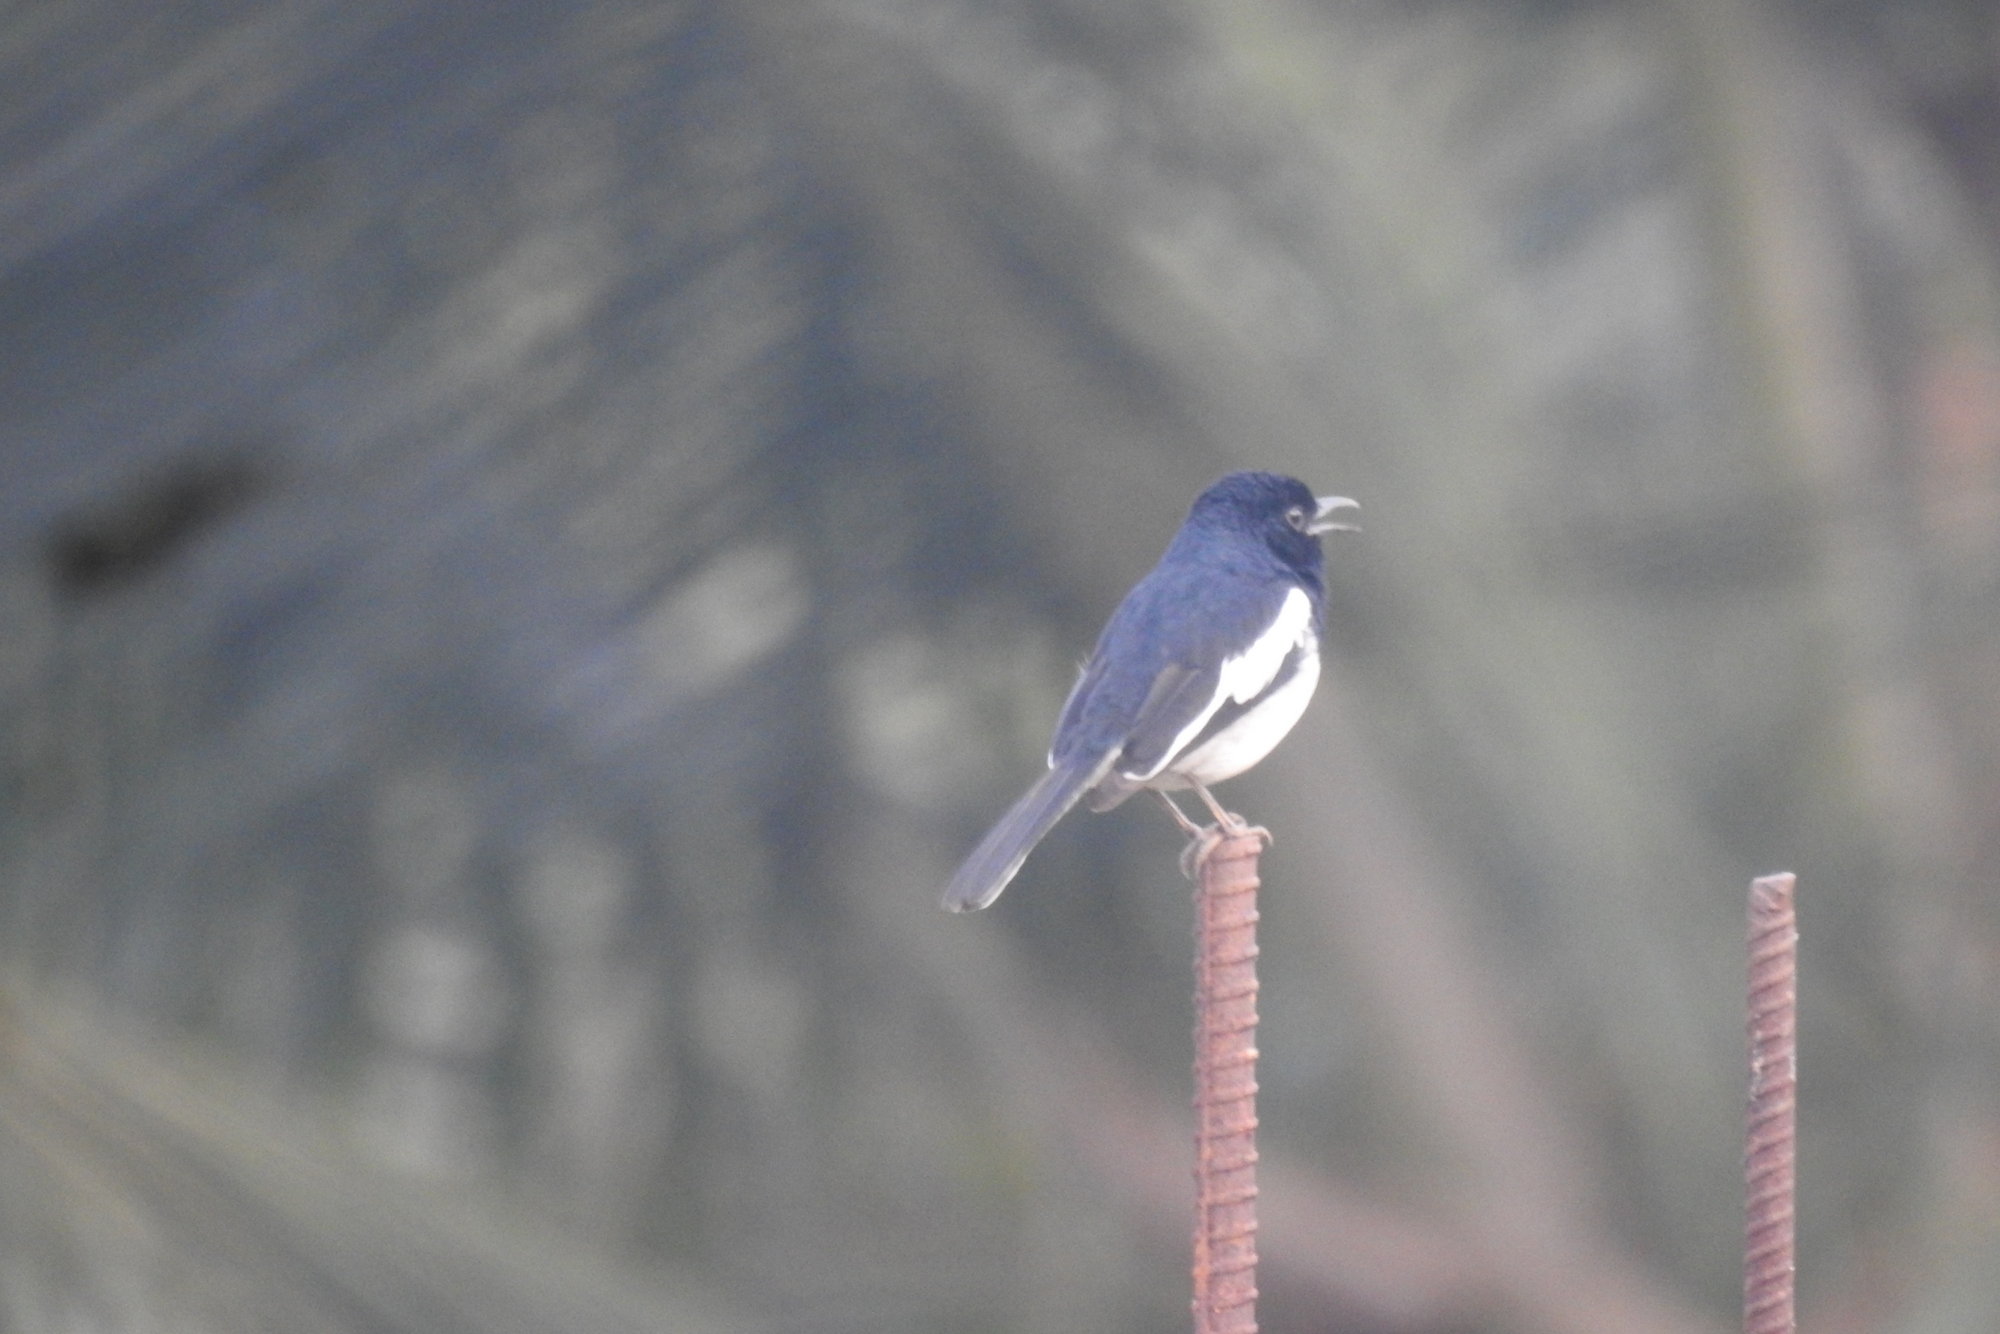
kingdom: Animalia
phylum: Chordata
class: Aves
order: Passeriformes
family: Muscicapidae
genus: Copsychus
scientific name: Copsychus saularis
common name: Oriental magpie-robin
